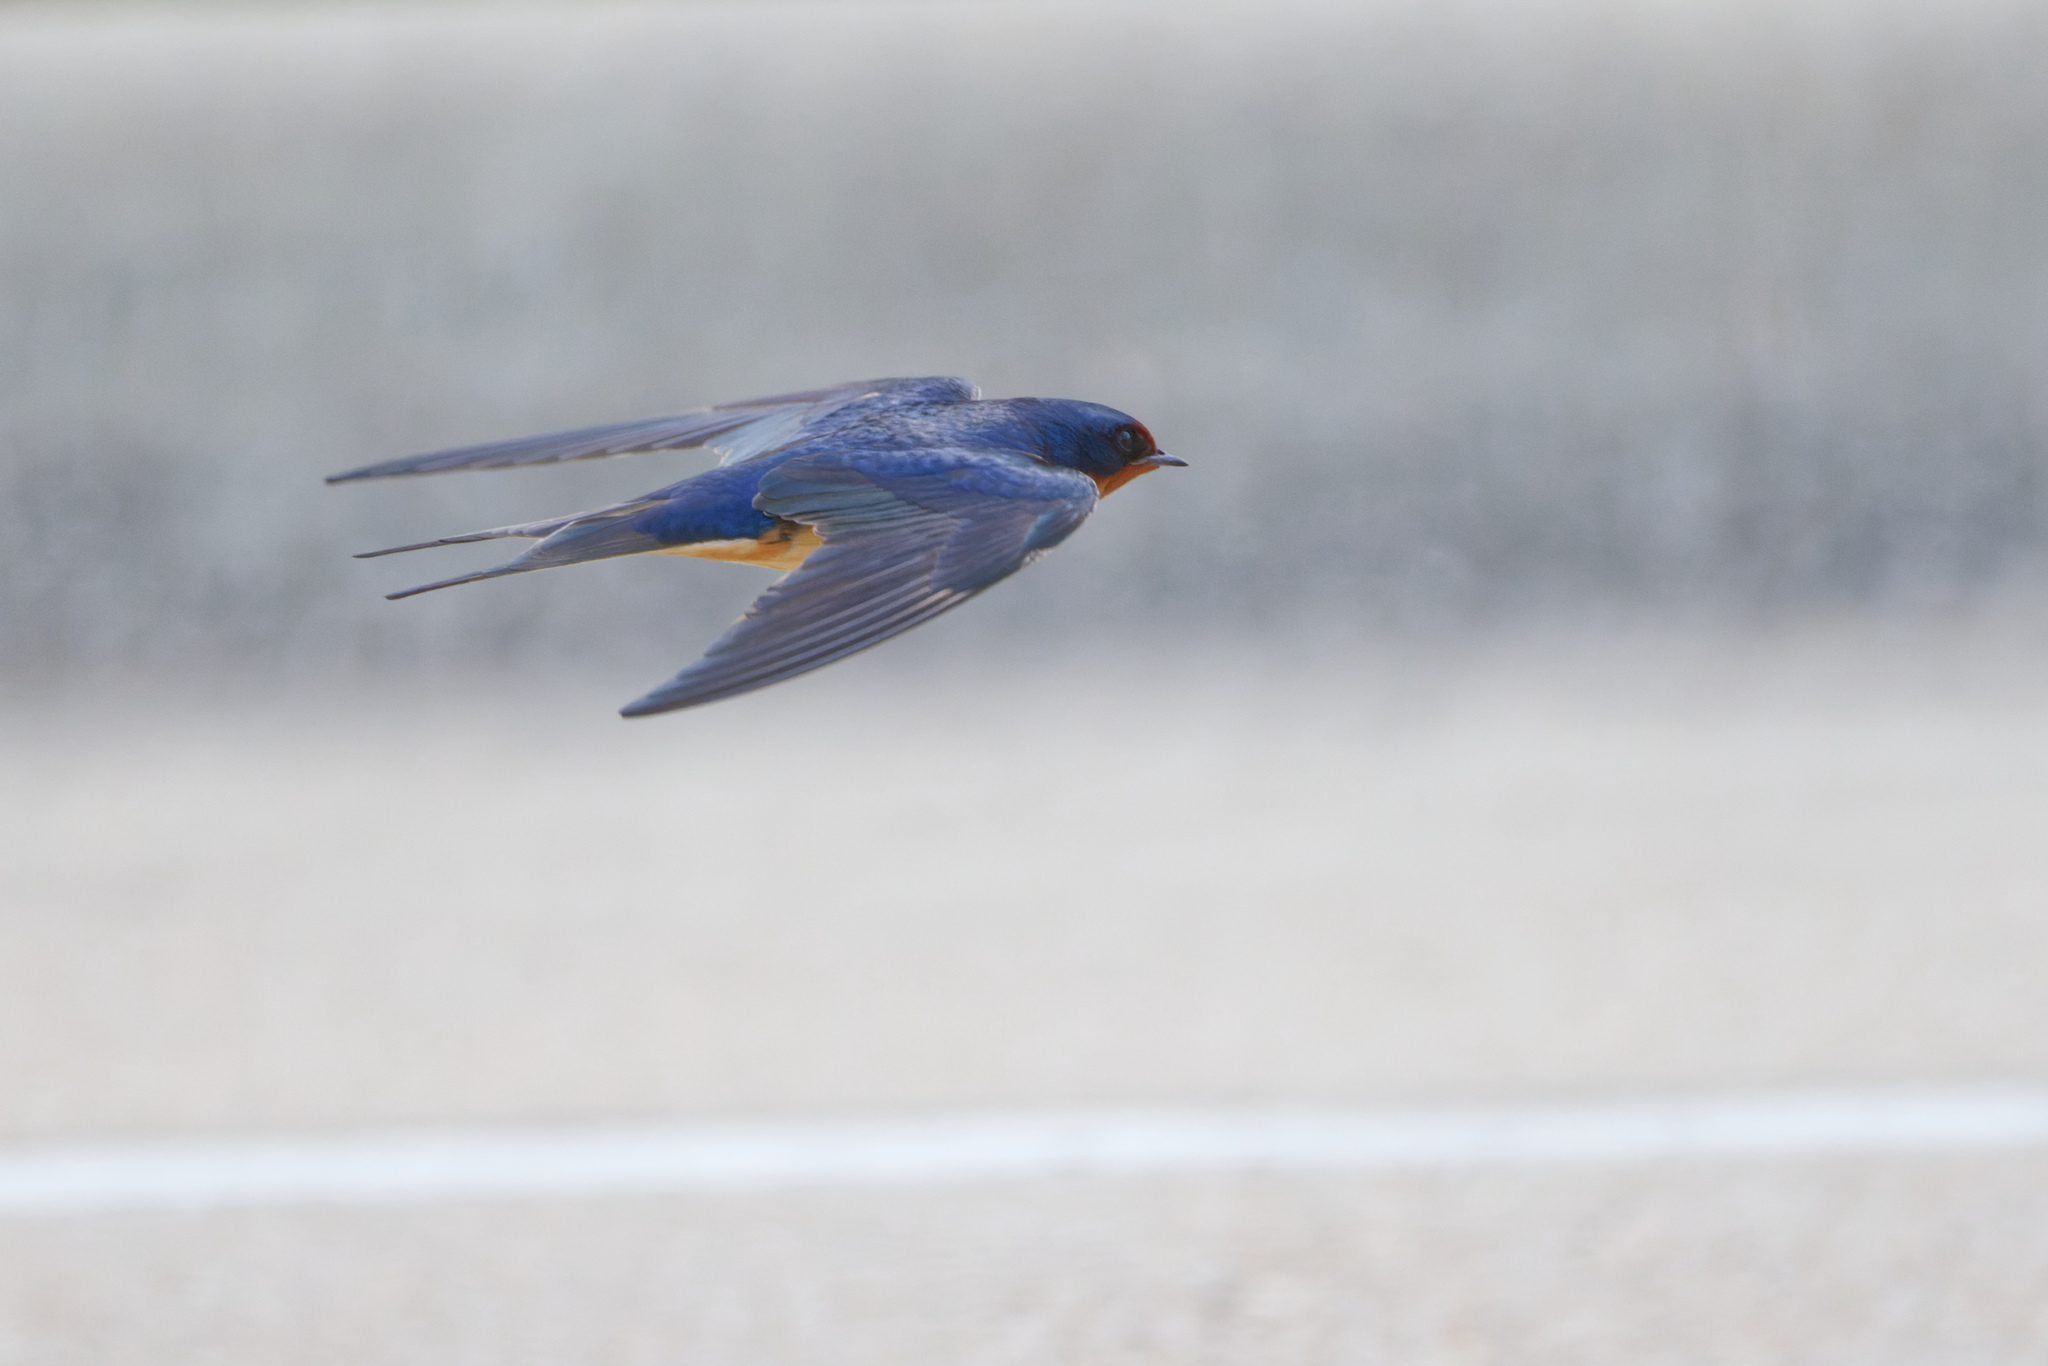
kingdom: Animalia
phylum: Chordata
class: Aves
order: Passeriformes
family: Hirundinidae
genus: Hirundo
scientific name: Hirundo rustica
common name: Barn swallow
